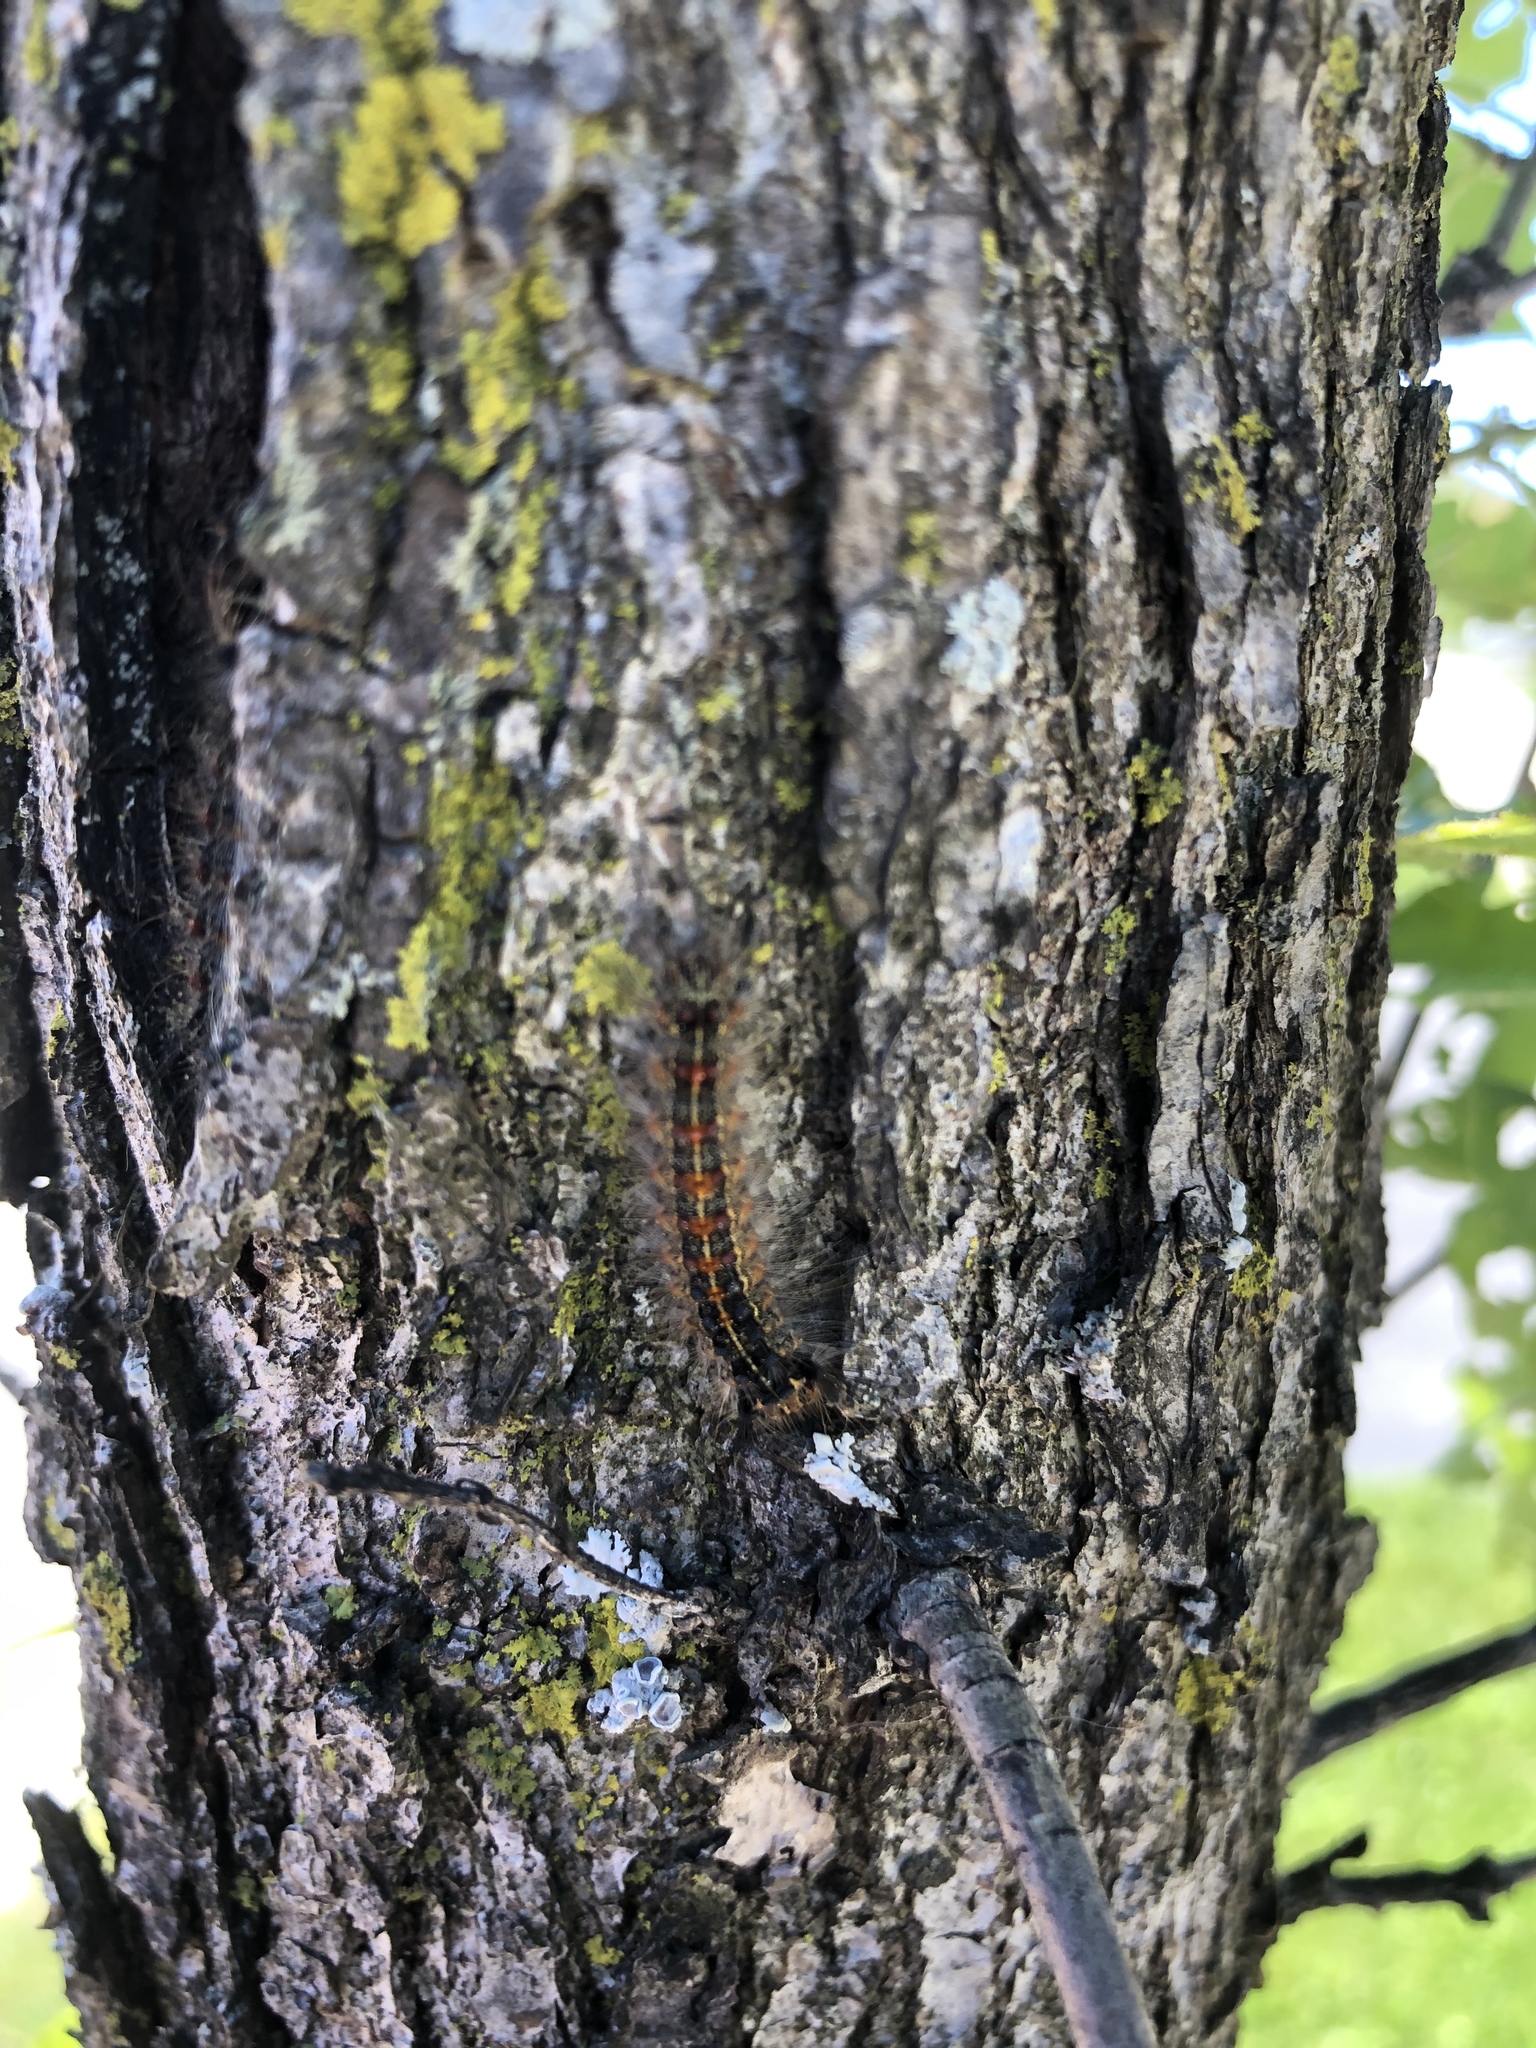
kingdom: Animalia
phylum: Arthropoda
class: Insecta
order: Lepidoptera
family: Erebidae
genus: Lymantria
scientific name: Lymantria dispar
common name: Gypsy moth
